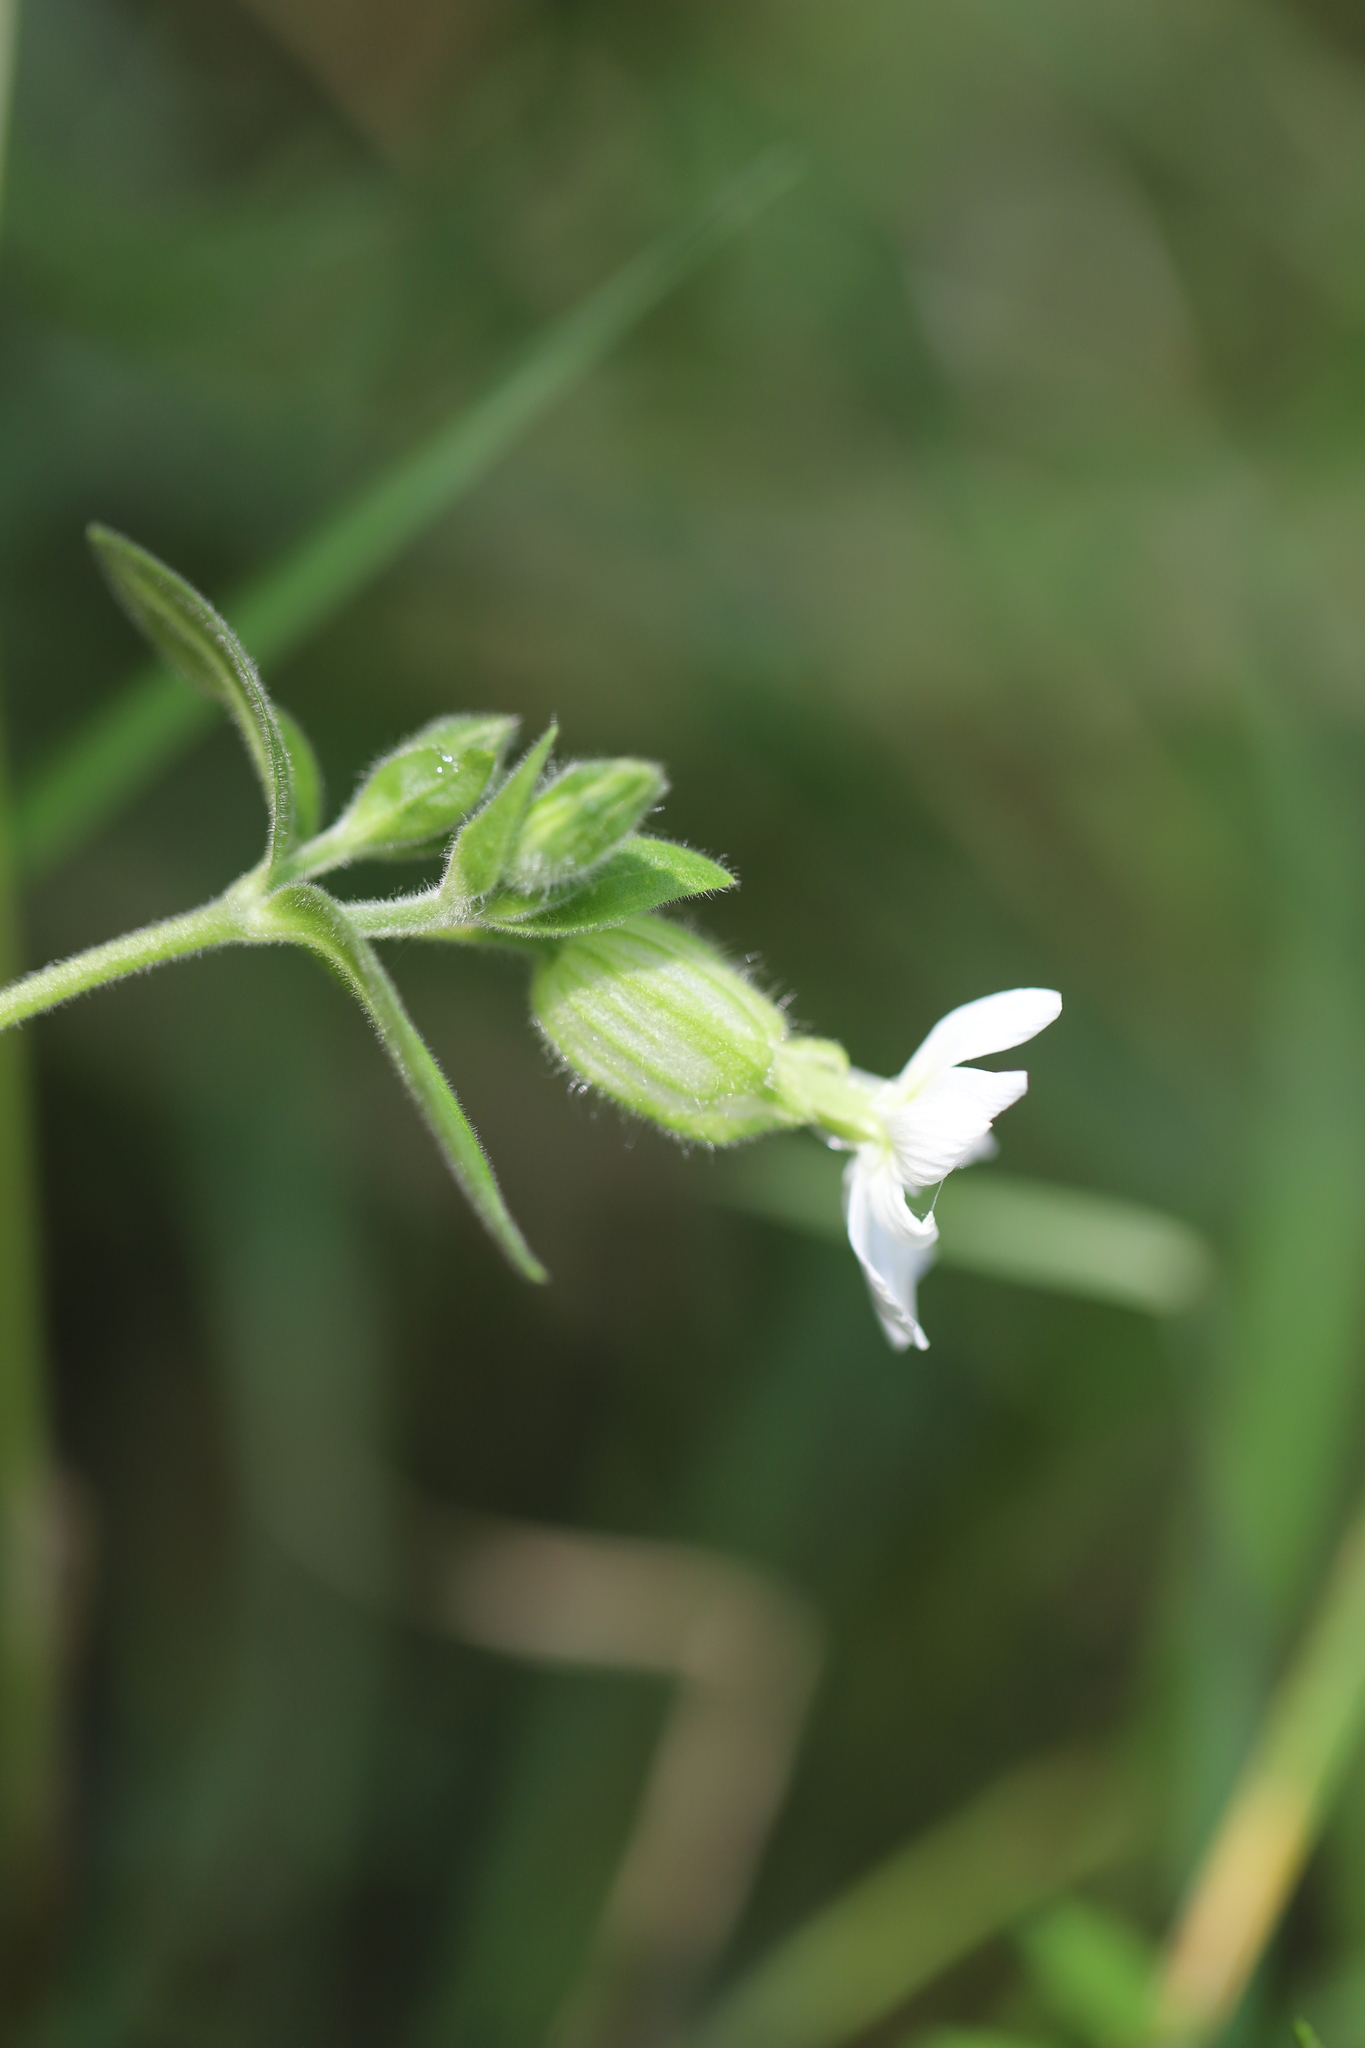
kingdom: Plantae
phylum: Tracheophyta
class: Magnoliopsida
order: Caryophyllales
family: Caryophyllaceae
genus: Silene
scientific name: Silene latifolia
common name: White campion
